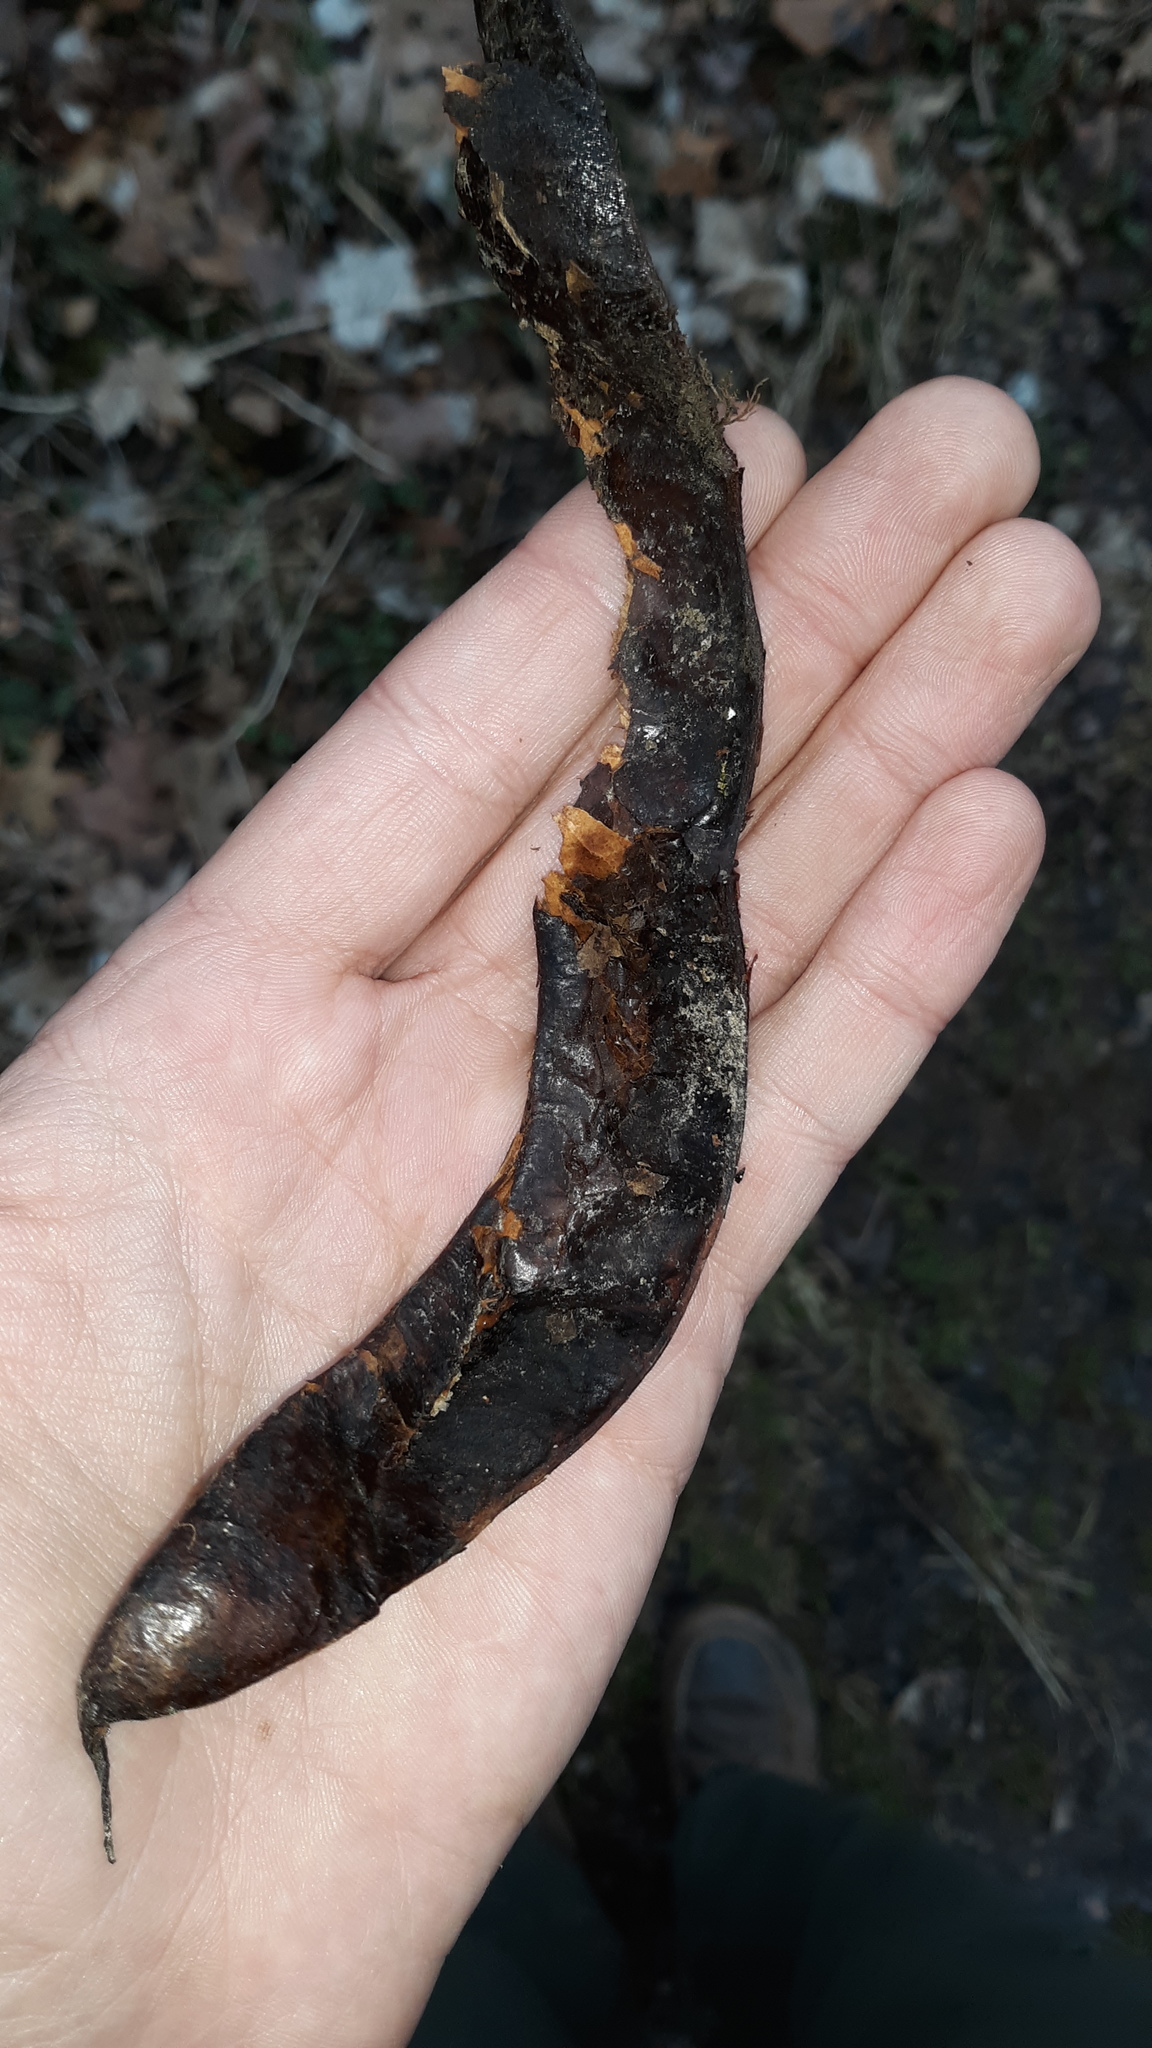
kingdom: Plantae
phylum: Tracheophyta
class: Magnoliopsida
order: Fabales
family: Fabaceae
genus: Gleditsia
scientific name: Gleditsia triacanthos
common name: Common honeylocust
